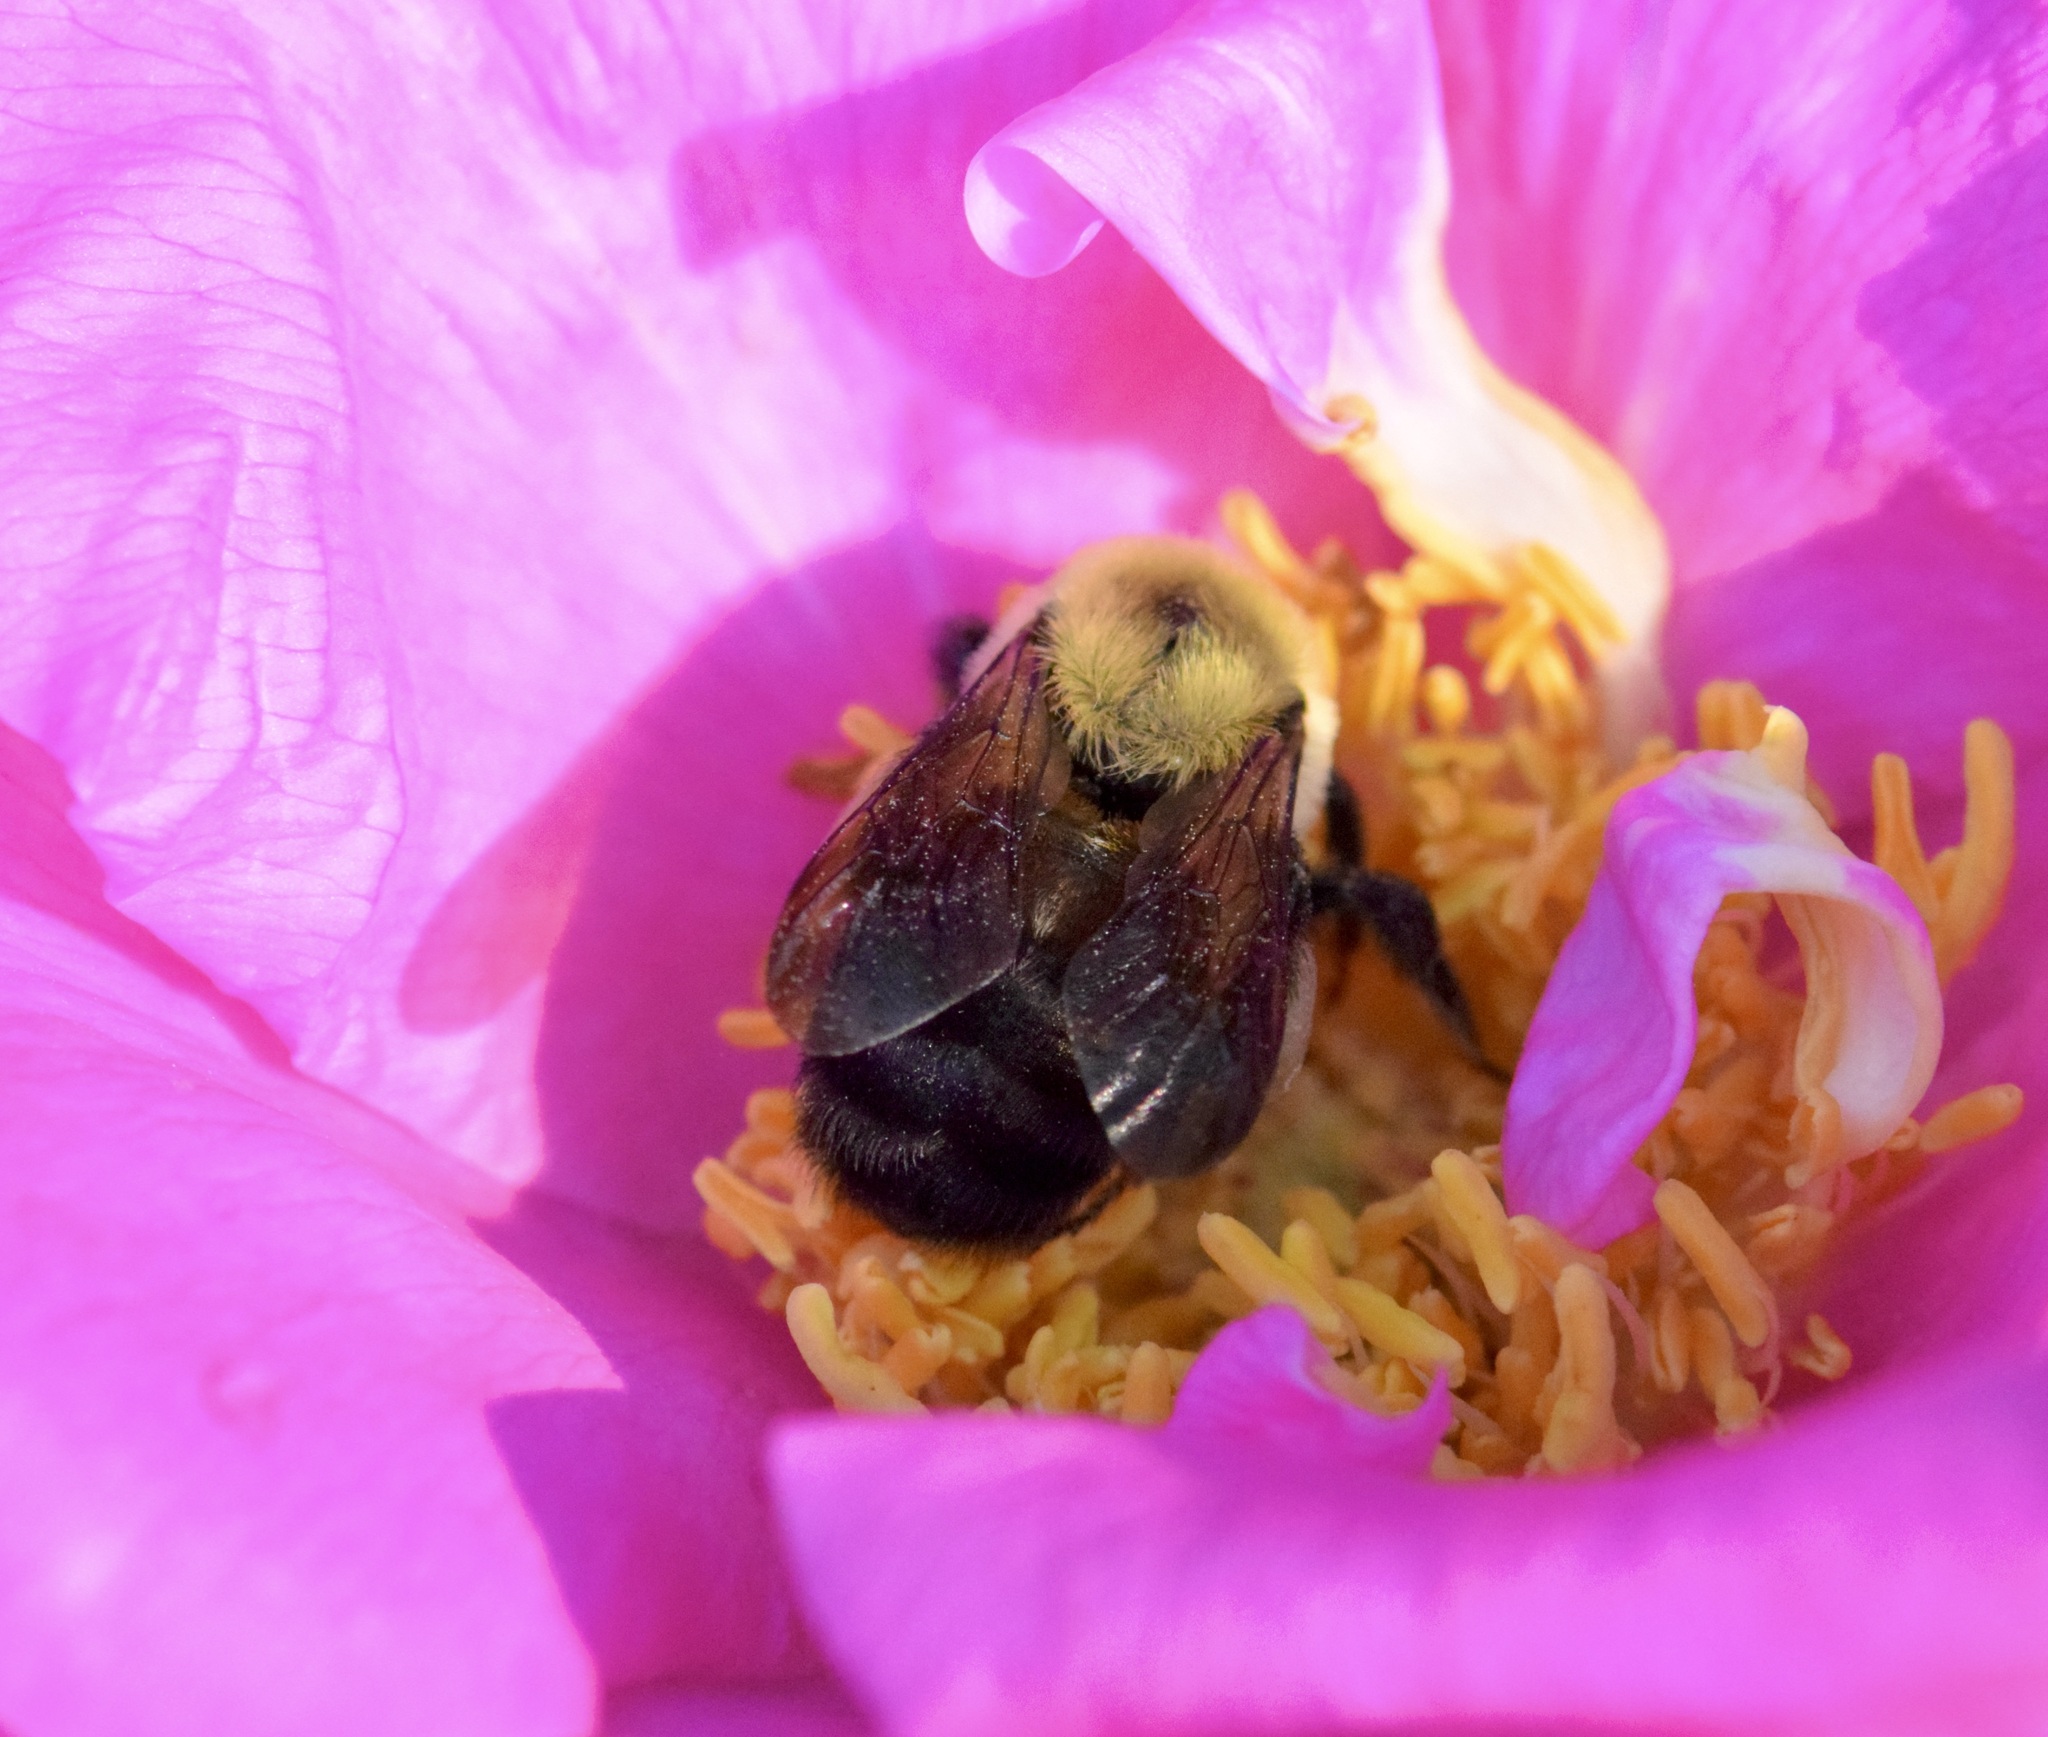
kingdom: Animalia
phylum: Arthropoda
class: Insecta
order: Hymenoptera
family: Apidae
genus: Bombus
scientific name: Bombus griseocollis
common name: Brown-belted bumble bee
